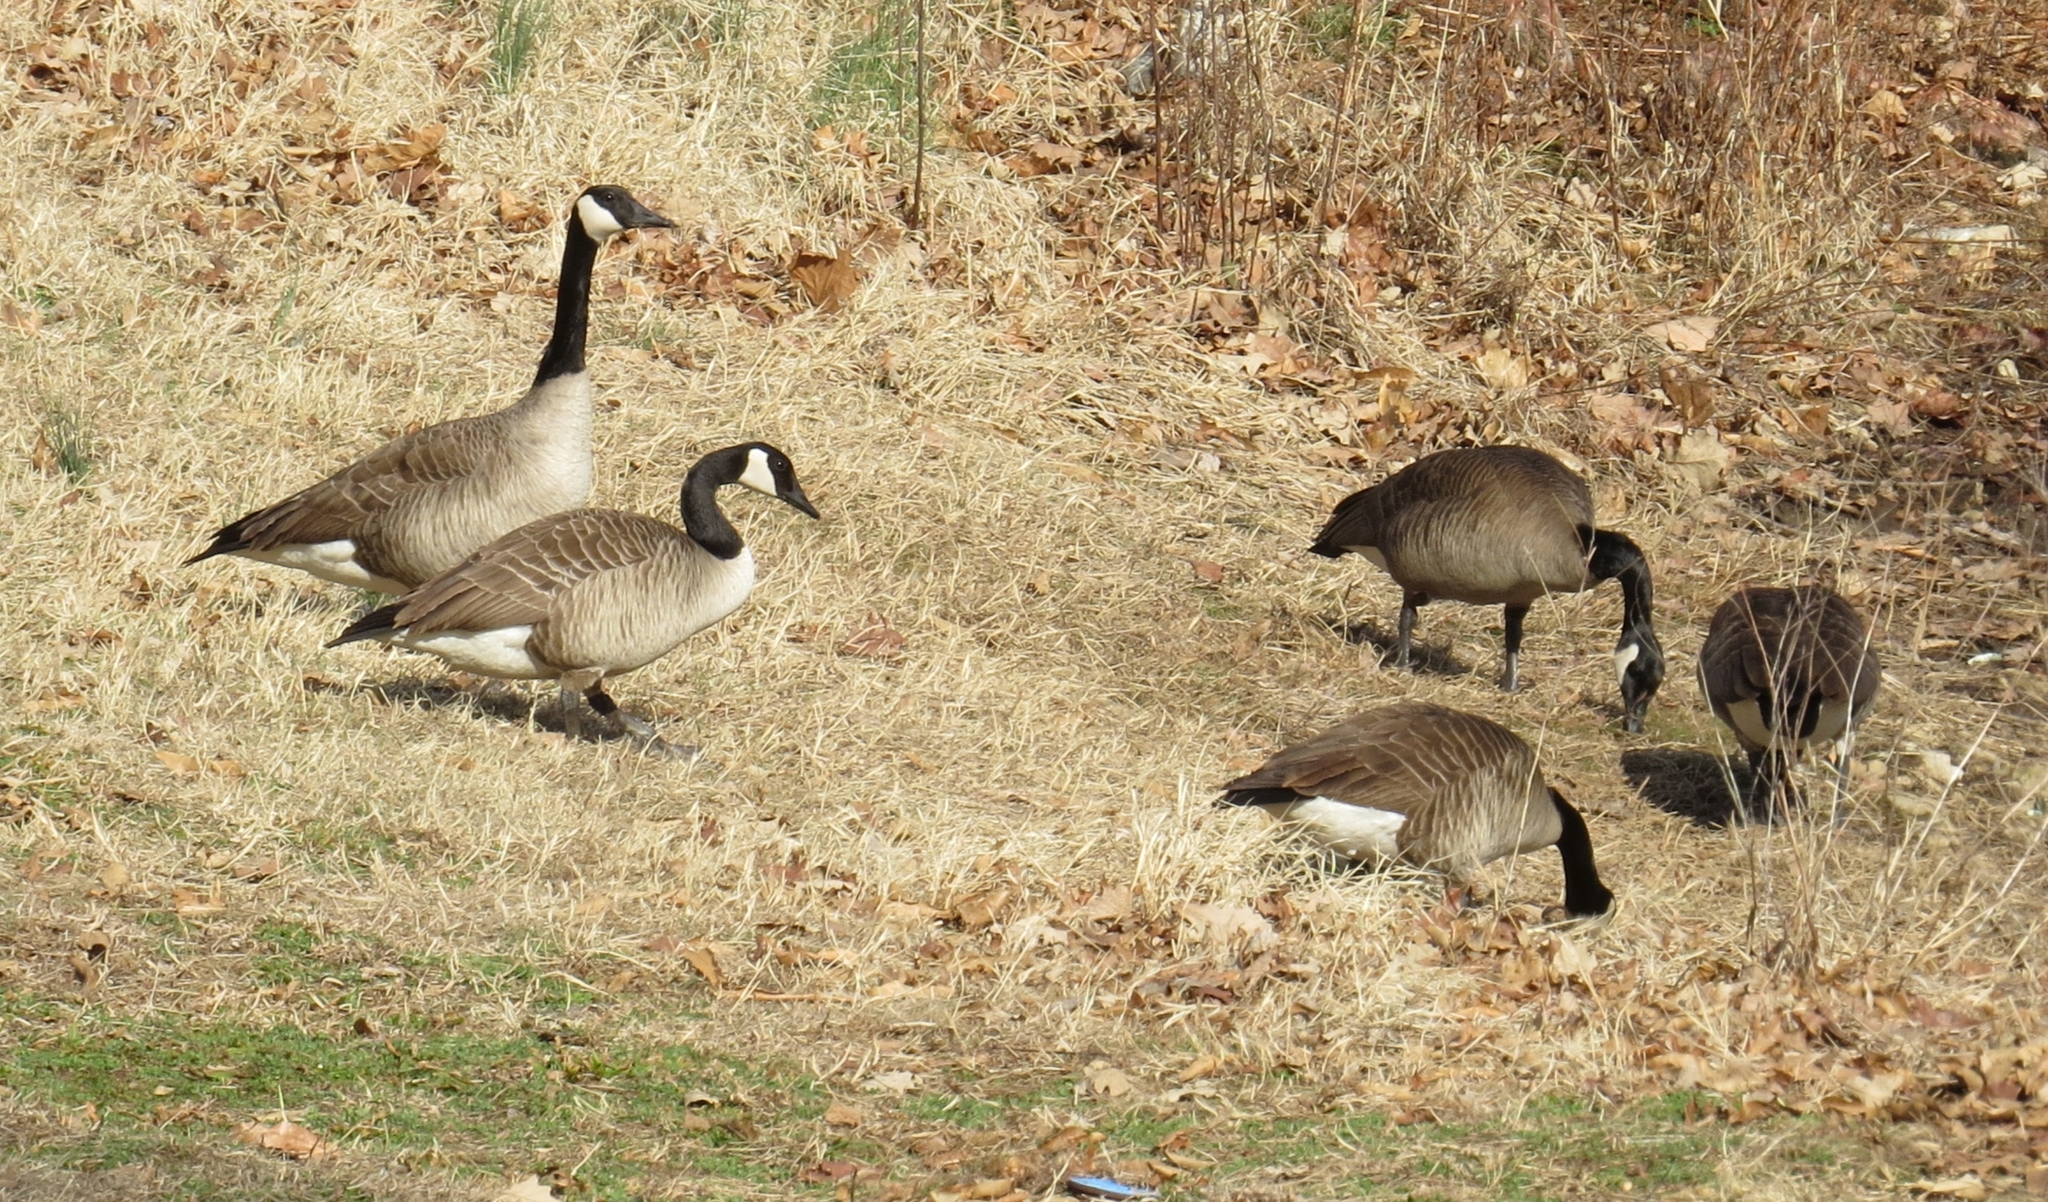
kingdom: Animalia
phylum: Chordata
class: Aves
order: Anseriformes
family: Anatidae
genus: Branta
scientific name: Branta canadensis
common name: Canada goose
